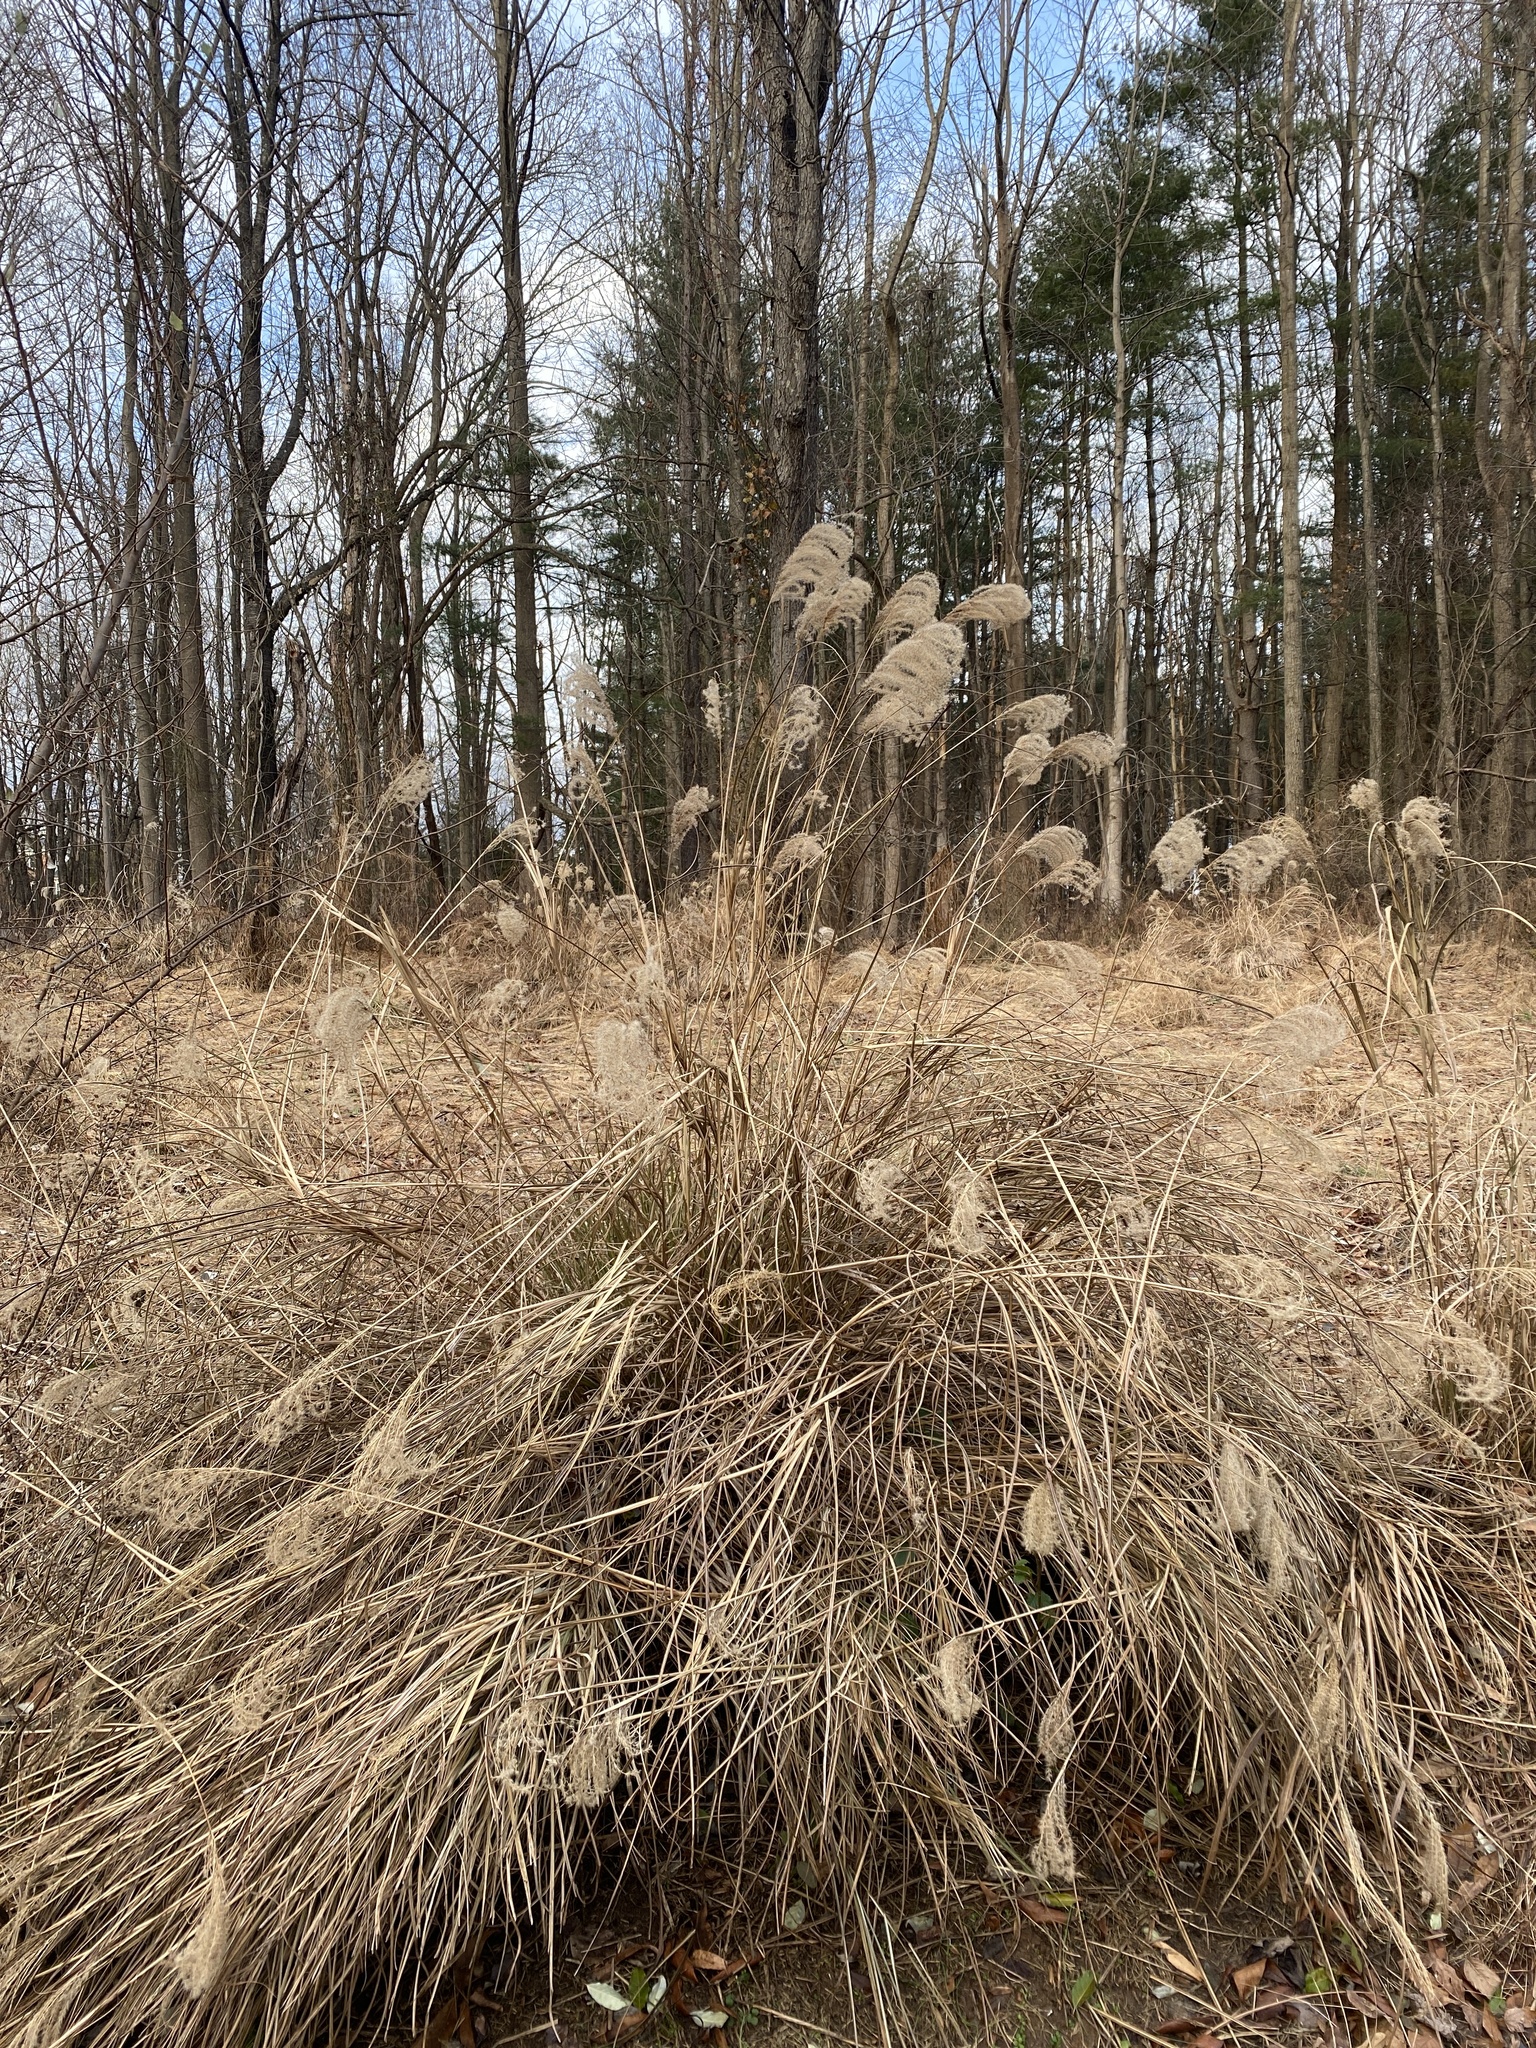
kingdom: Plantae
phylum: Tracheophyta
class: Liliopsida
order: Poales
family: Poaceae
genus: Miscanthus
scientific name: Miscanthus sinensis
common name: Chinese silvergrass
